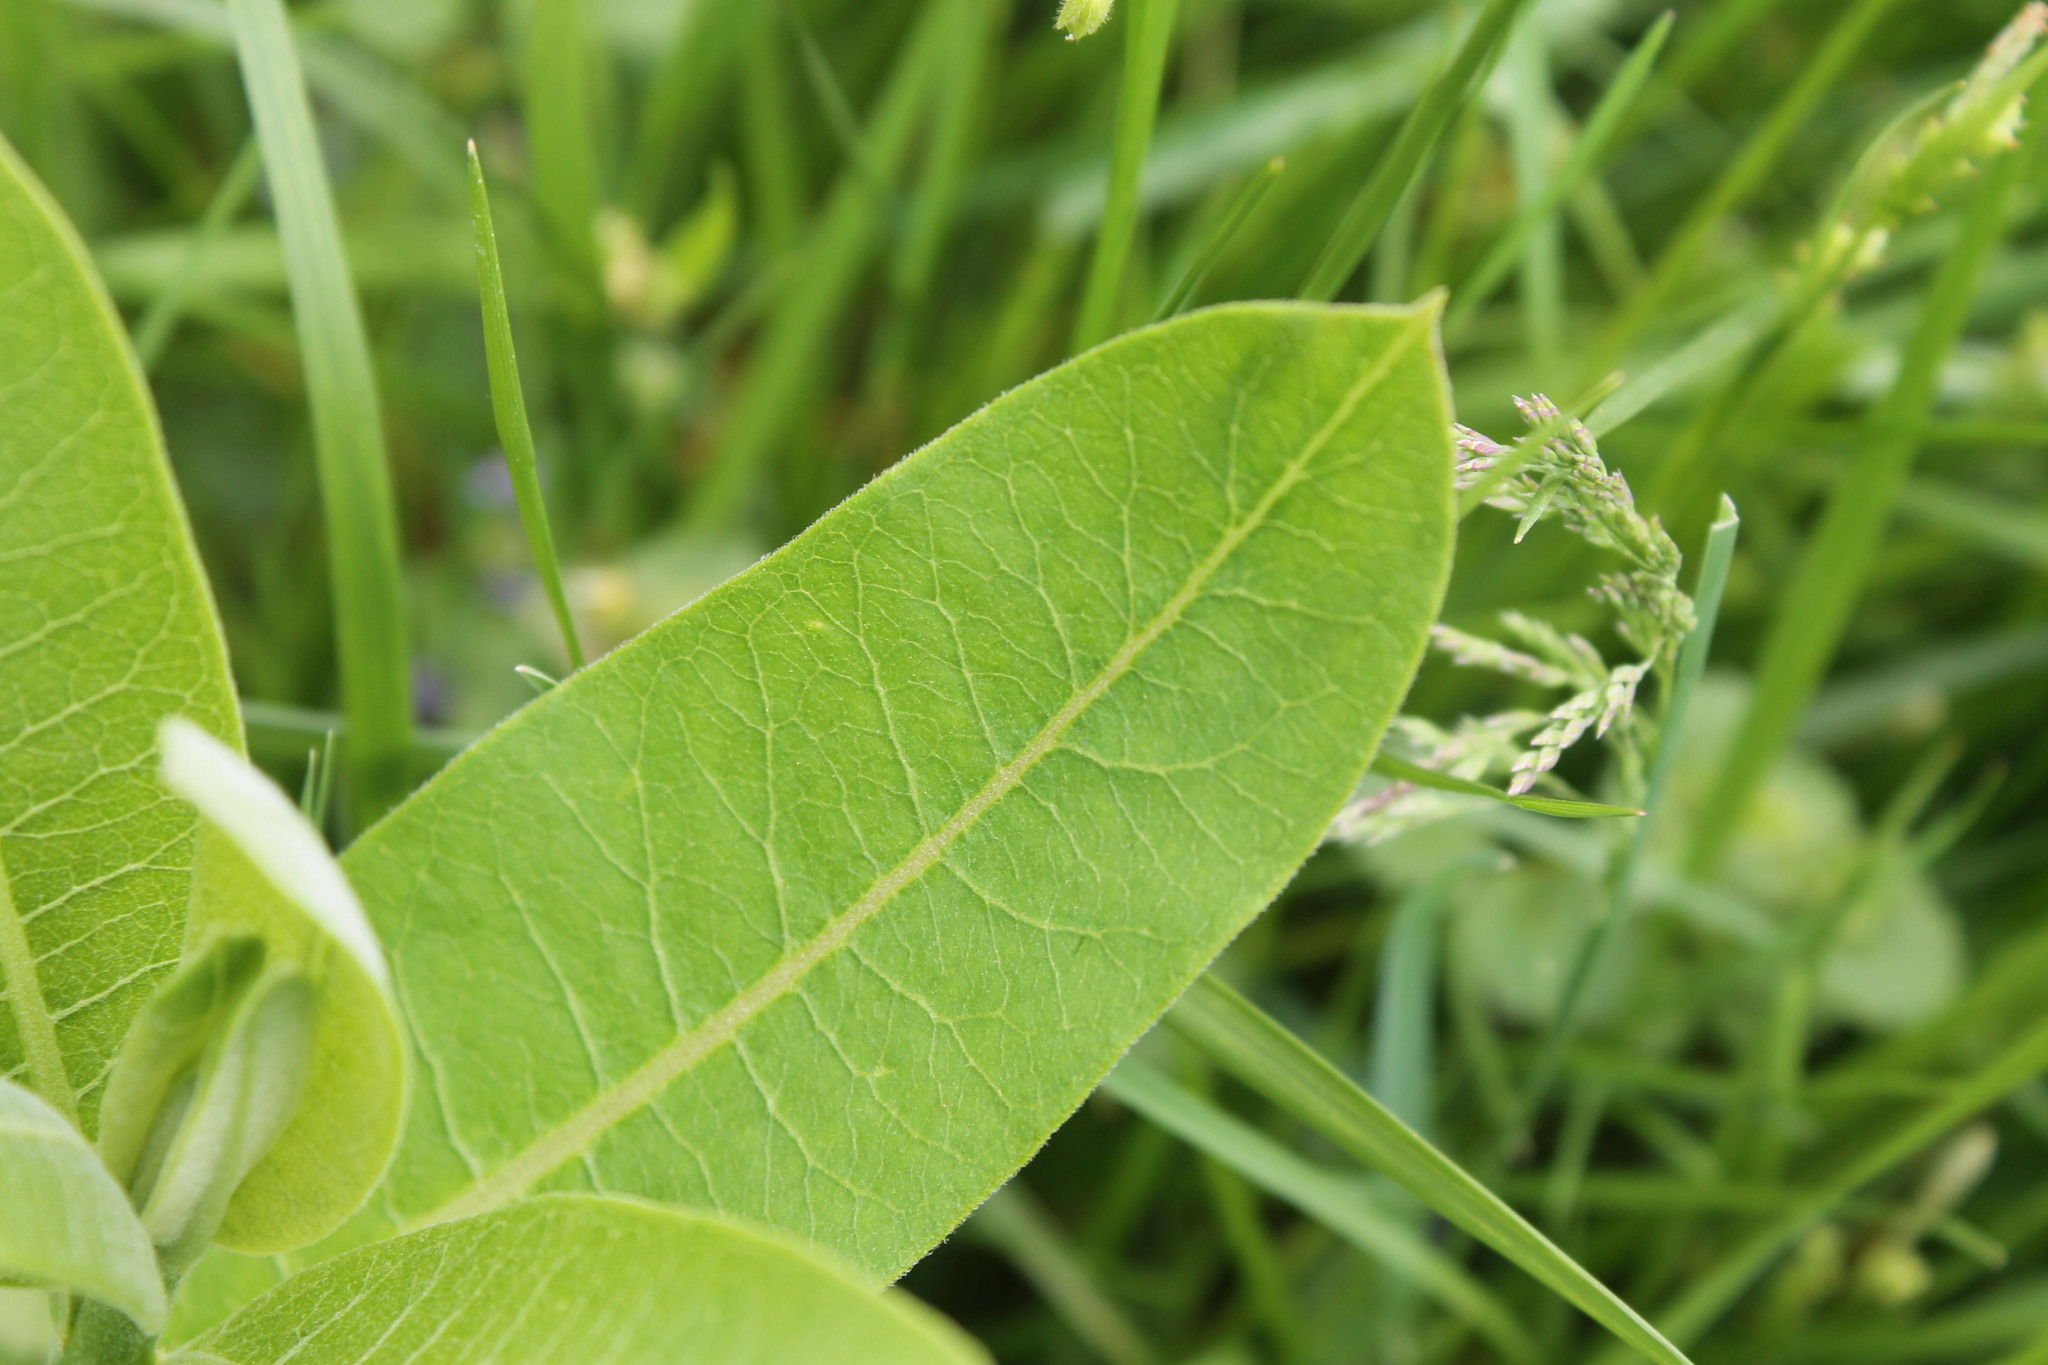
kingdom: Plantae
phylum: Tracheophyta
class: Magnoliopsida
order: Gentianales
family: Apocynaceae
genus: Asclepias
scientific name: Asclepias syriaca
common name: Common milkweed
